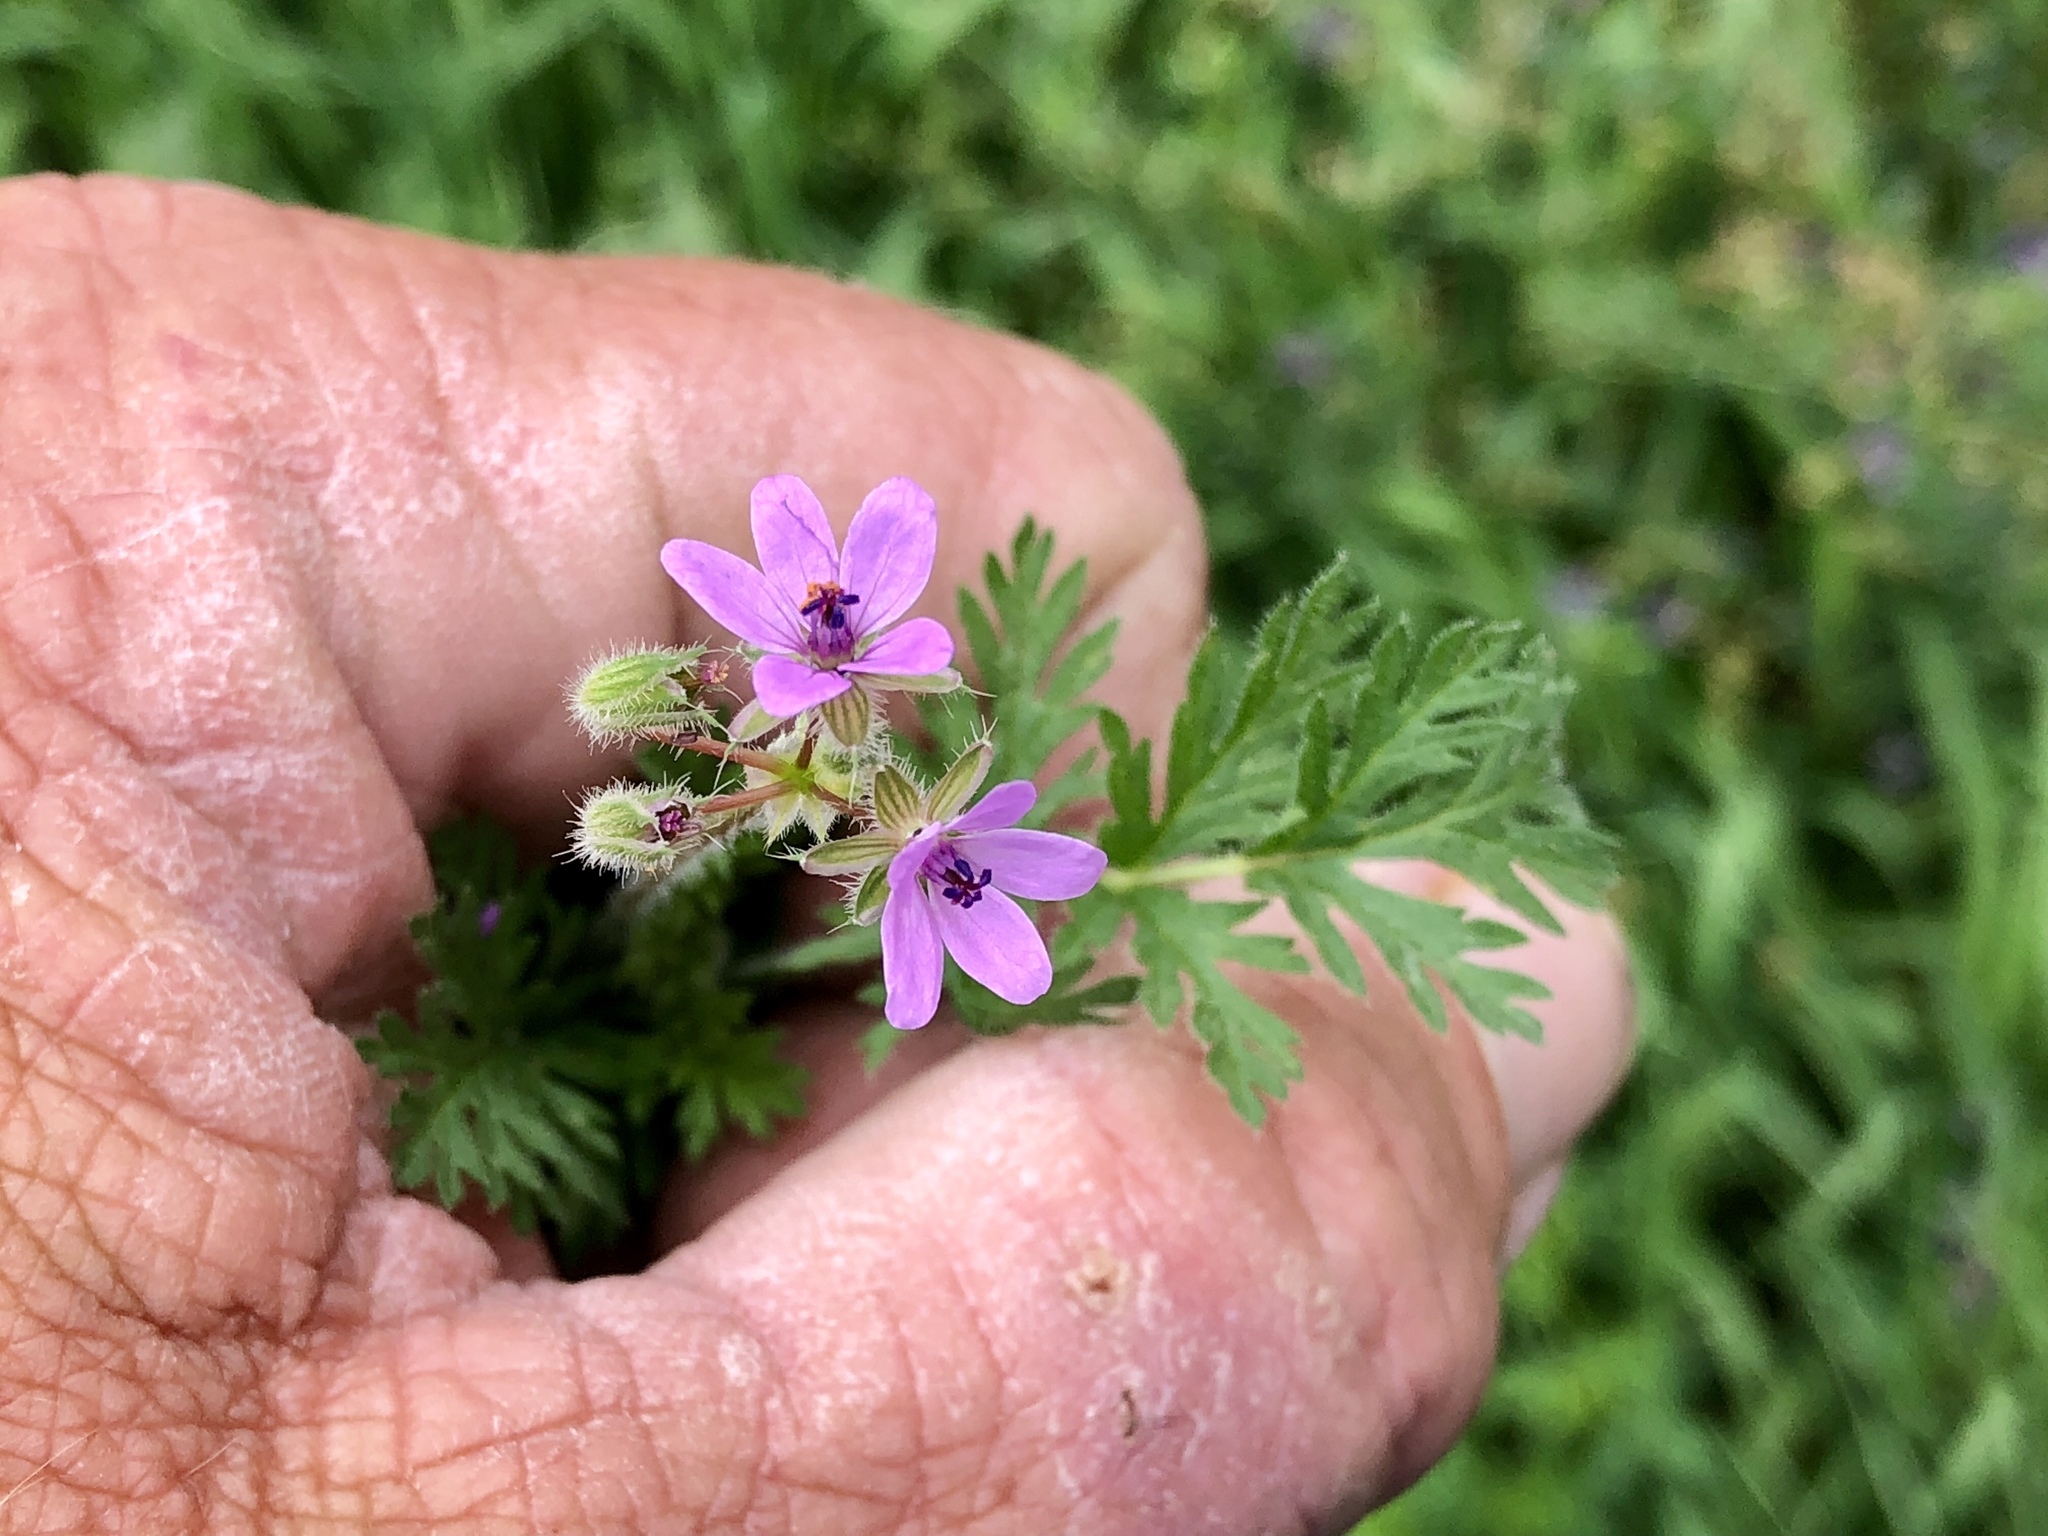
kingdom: Plantae
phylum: Tracheophyta
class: Magnoliopsida
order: Geraniales
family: Geraniaceae
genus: Erodium
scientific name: Erodium cicutarium
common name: Common stork's-bill
